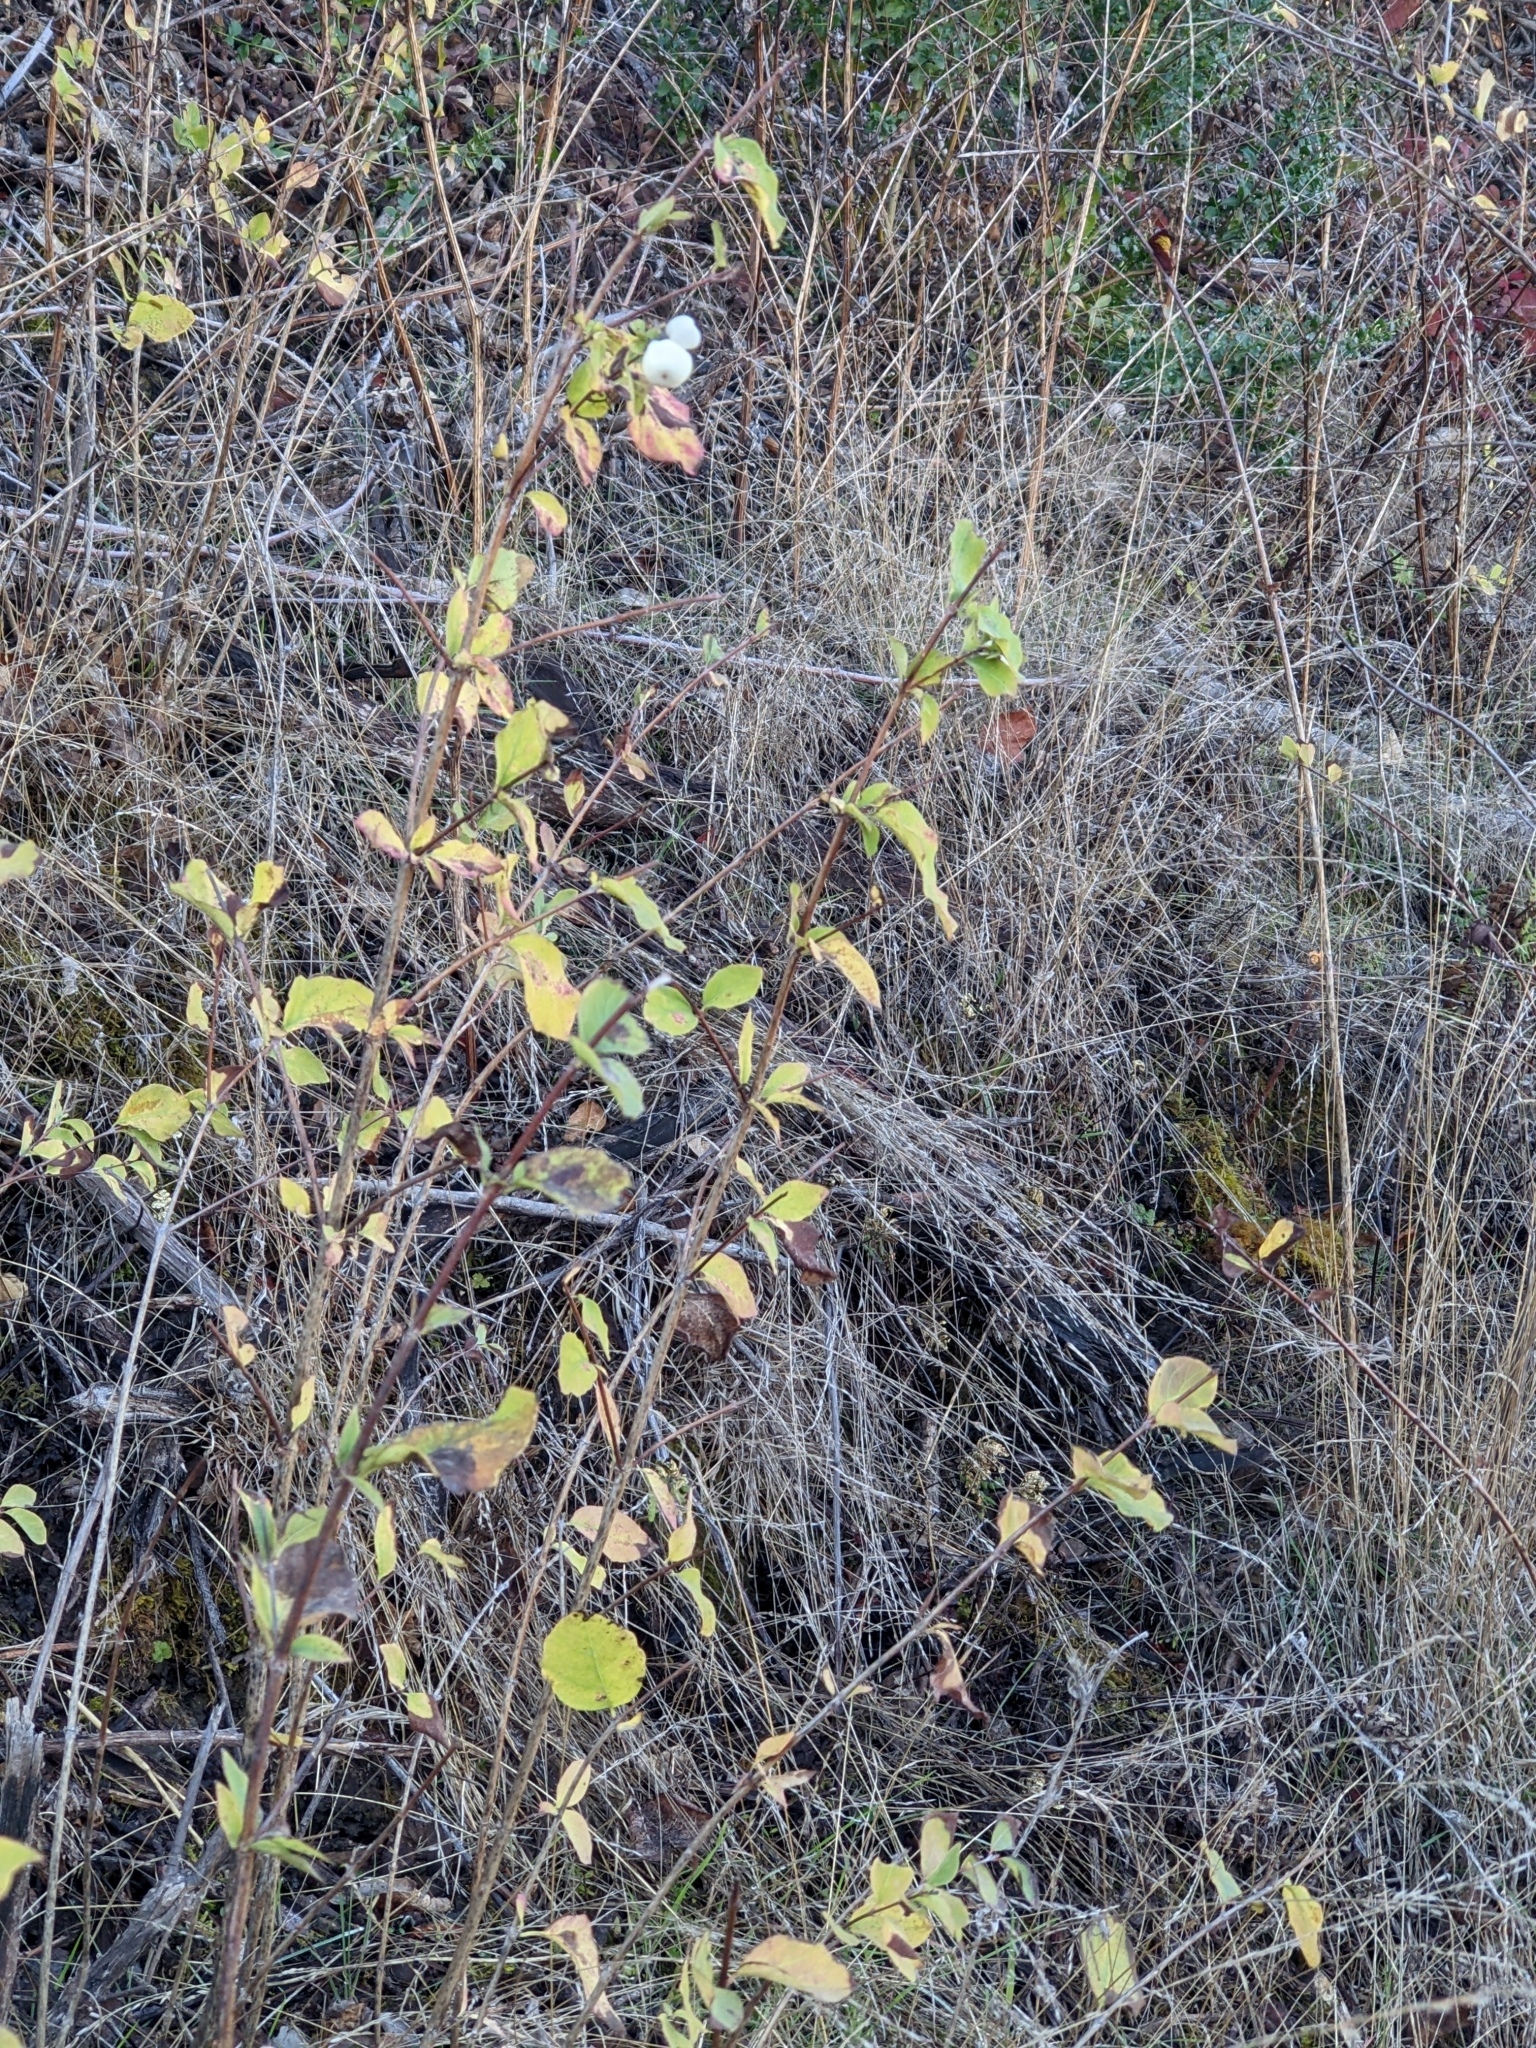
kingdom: Plantae
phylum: Tracheophyta
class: Magnoliopsida
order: Dipsacales
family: Caprifoliaceae
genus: Symphoricarpos
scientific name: Symphoricarpos albus
